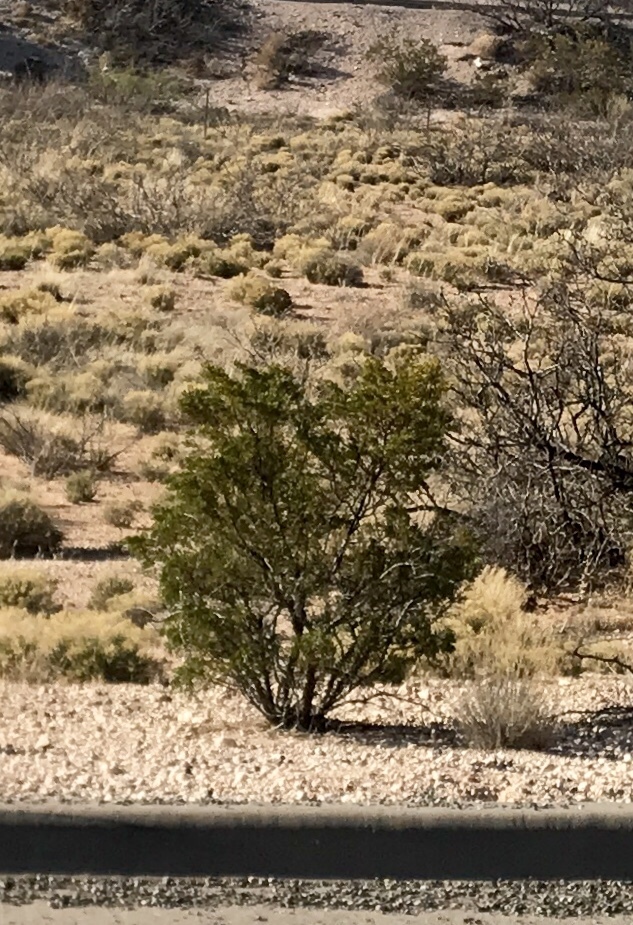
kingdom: Plantae
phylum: Tracheophyta
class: Magnoliopsida
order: Zygophyllales
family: Zygophyllaceae
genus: Larrea
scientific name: Larrea tridentata
